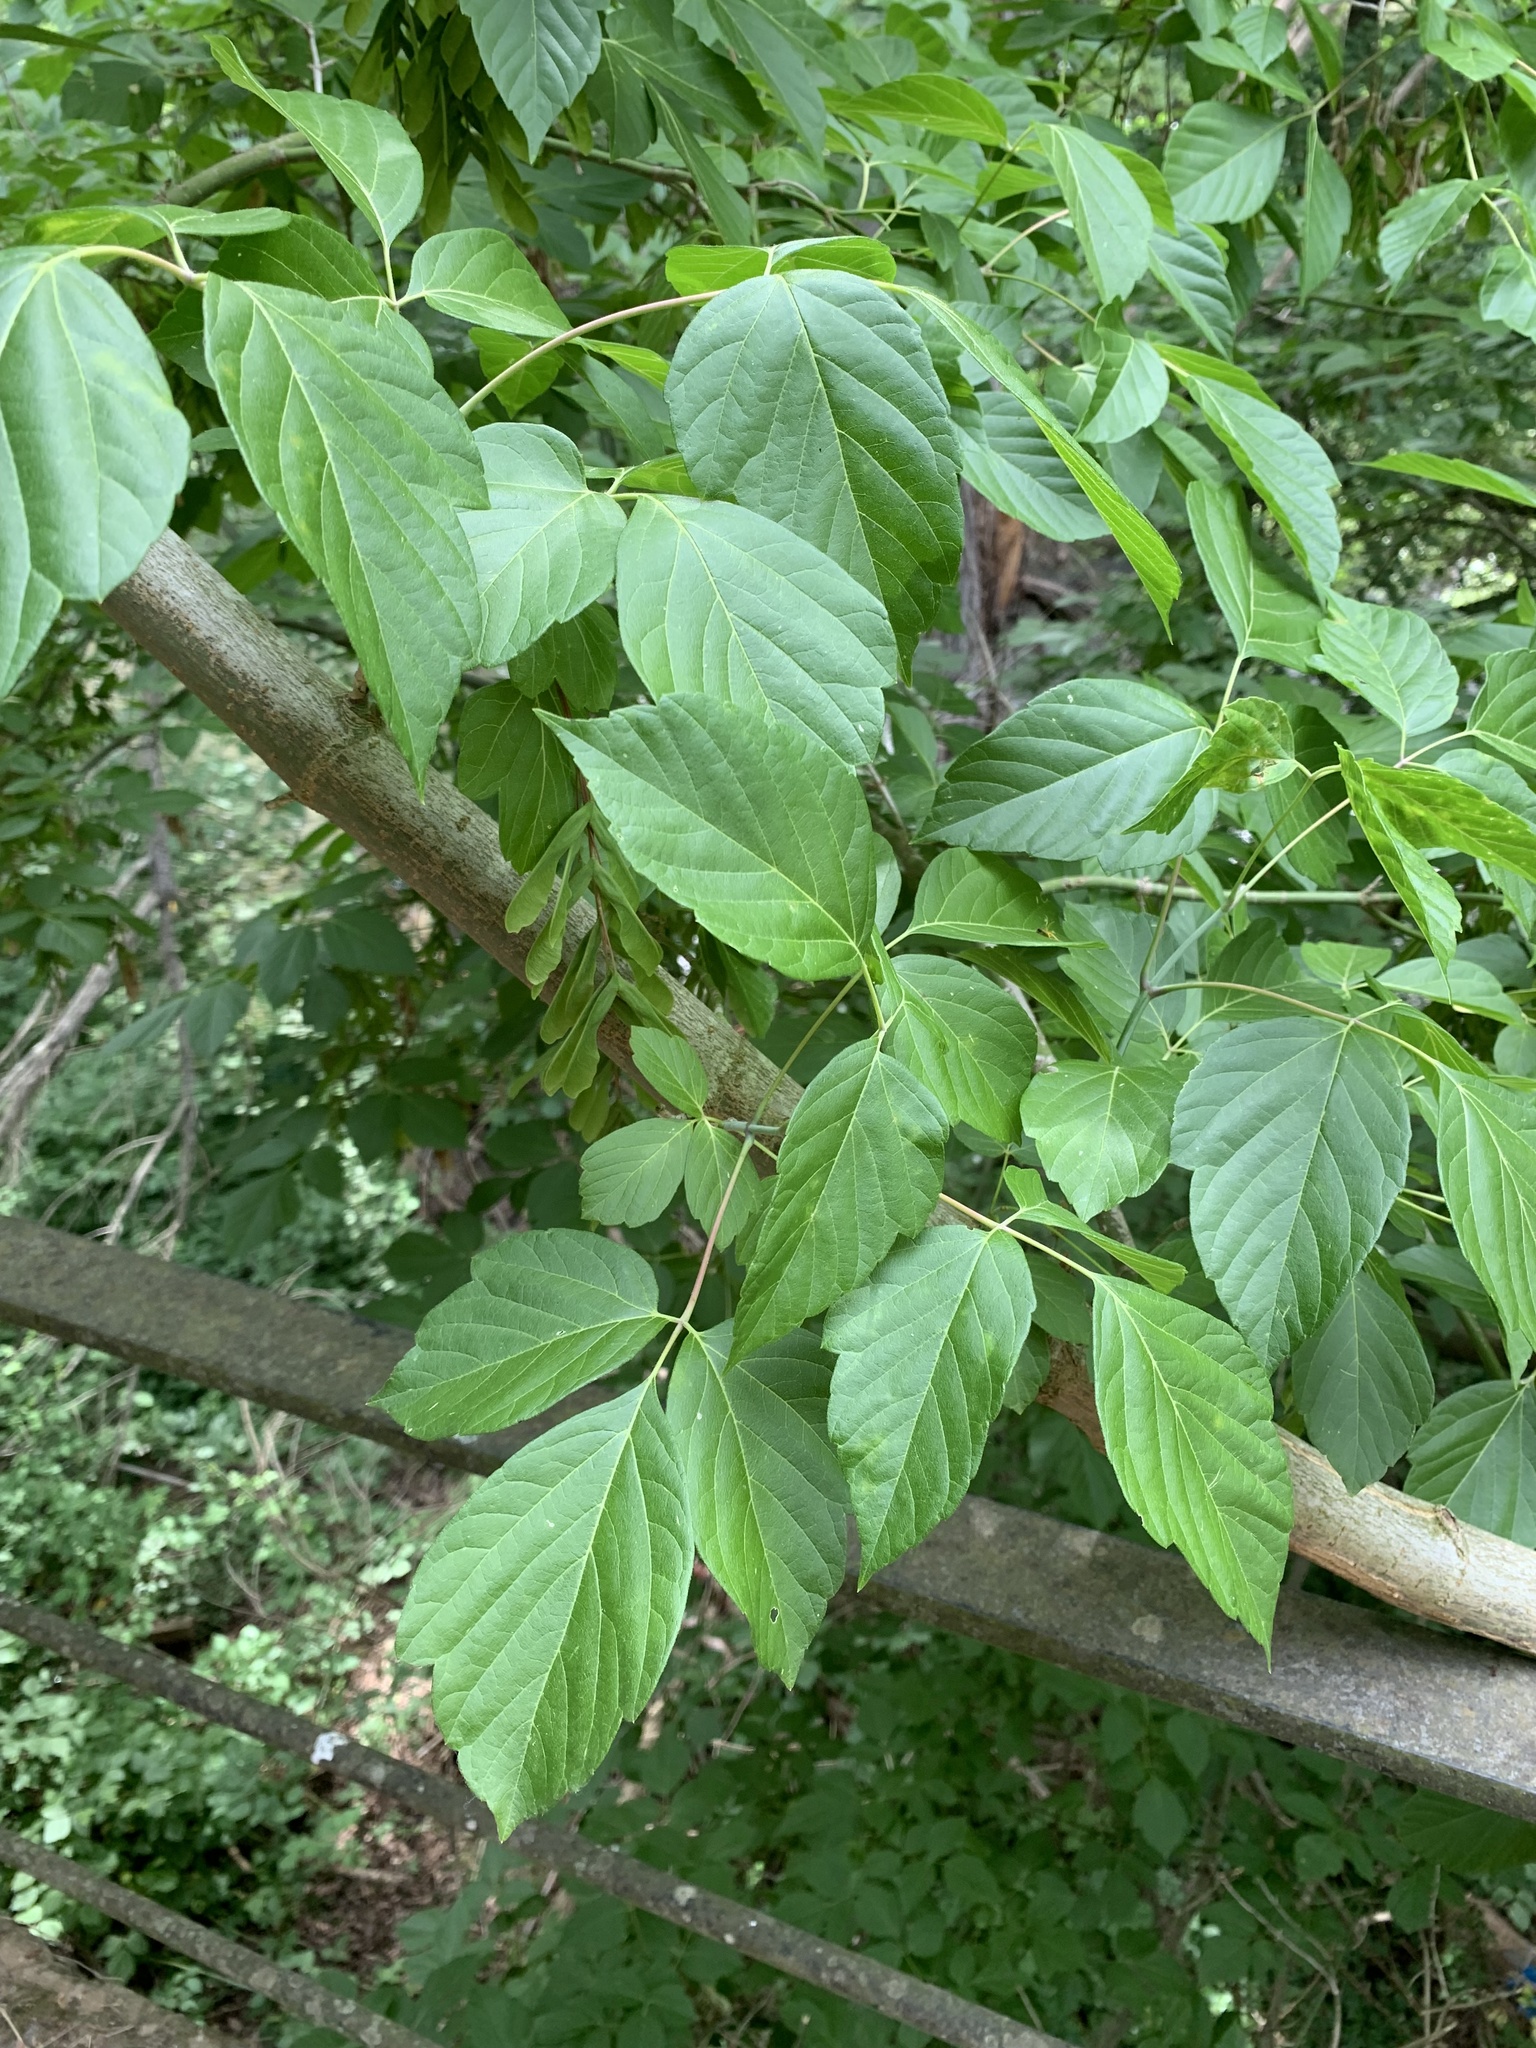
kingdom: Plantae
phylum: Tracheophyta
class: Magnoliopsida
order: Sapindales
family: Sapindaceae
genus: Acer
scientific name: Acer negundo
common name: Ashleaf maple
